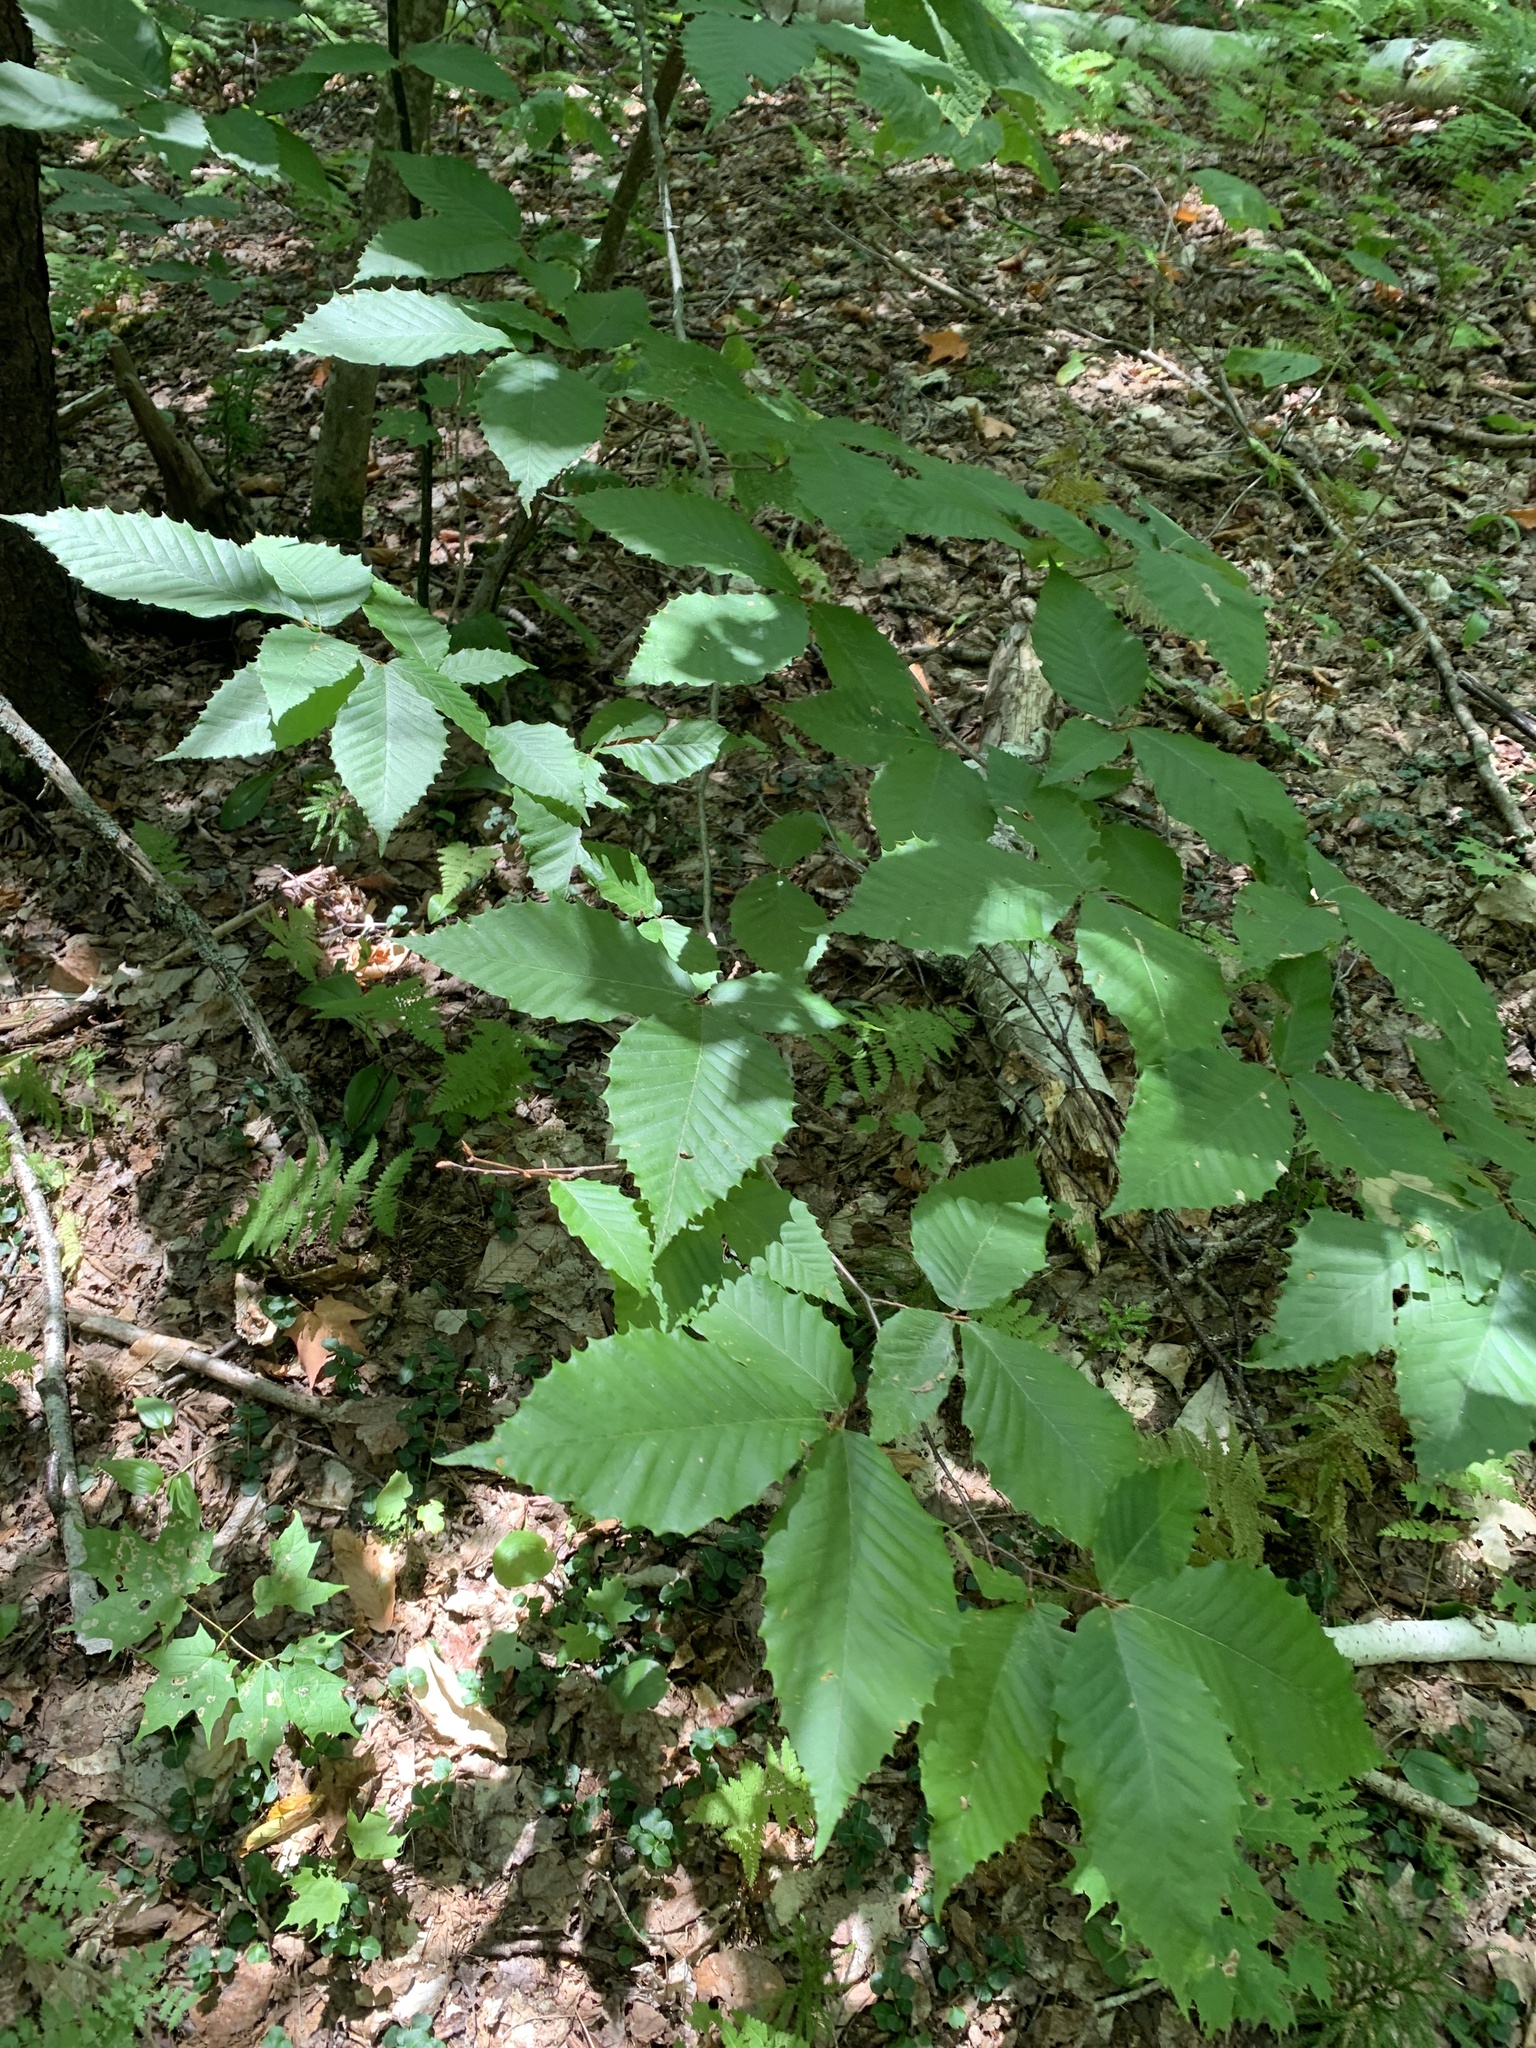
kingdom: Plantae
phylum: Tracheophyta
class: Magnoliopsida
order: Fagales
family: Fagaceae
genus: Fagus
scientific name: Fagus grandifolia
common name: American beech
